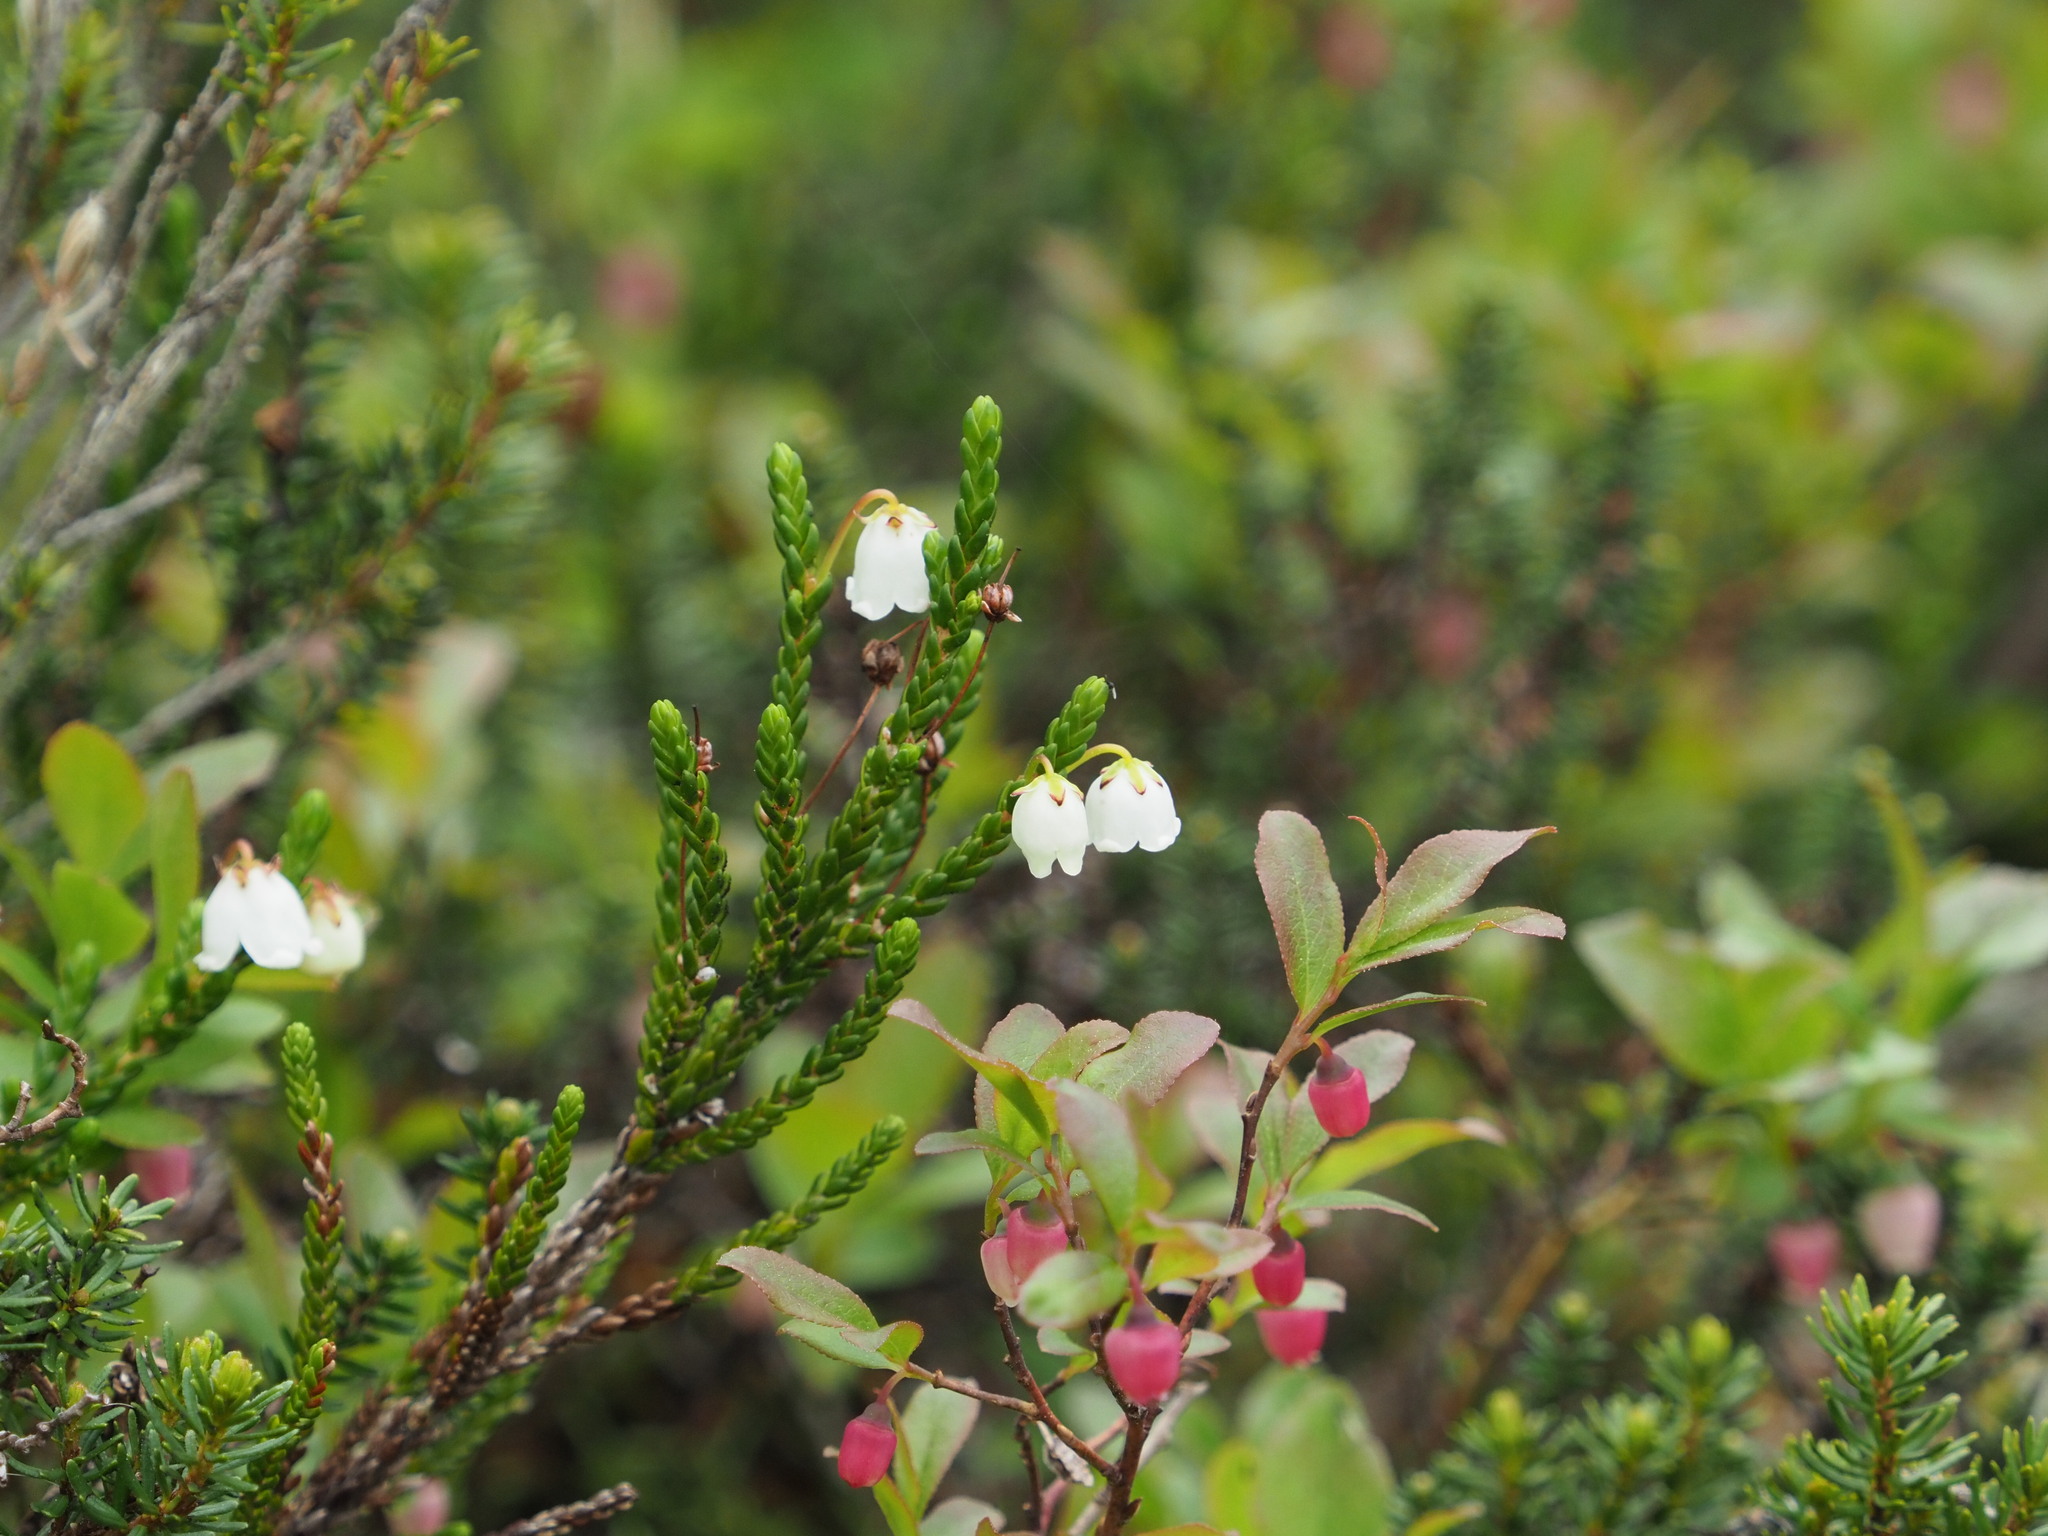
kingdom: Plantae
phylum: Tracheophyta
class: Magnoliopsida
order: Ericales
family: Ericaceae
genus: Cassiope
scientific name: Cassiope mertensiana
